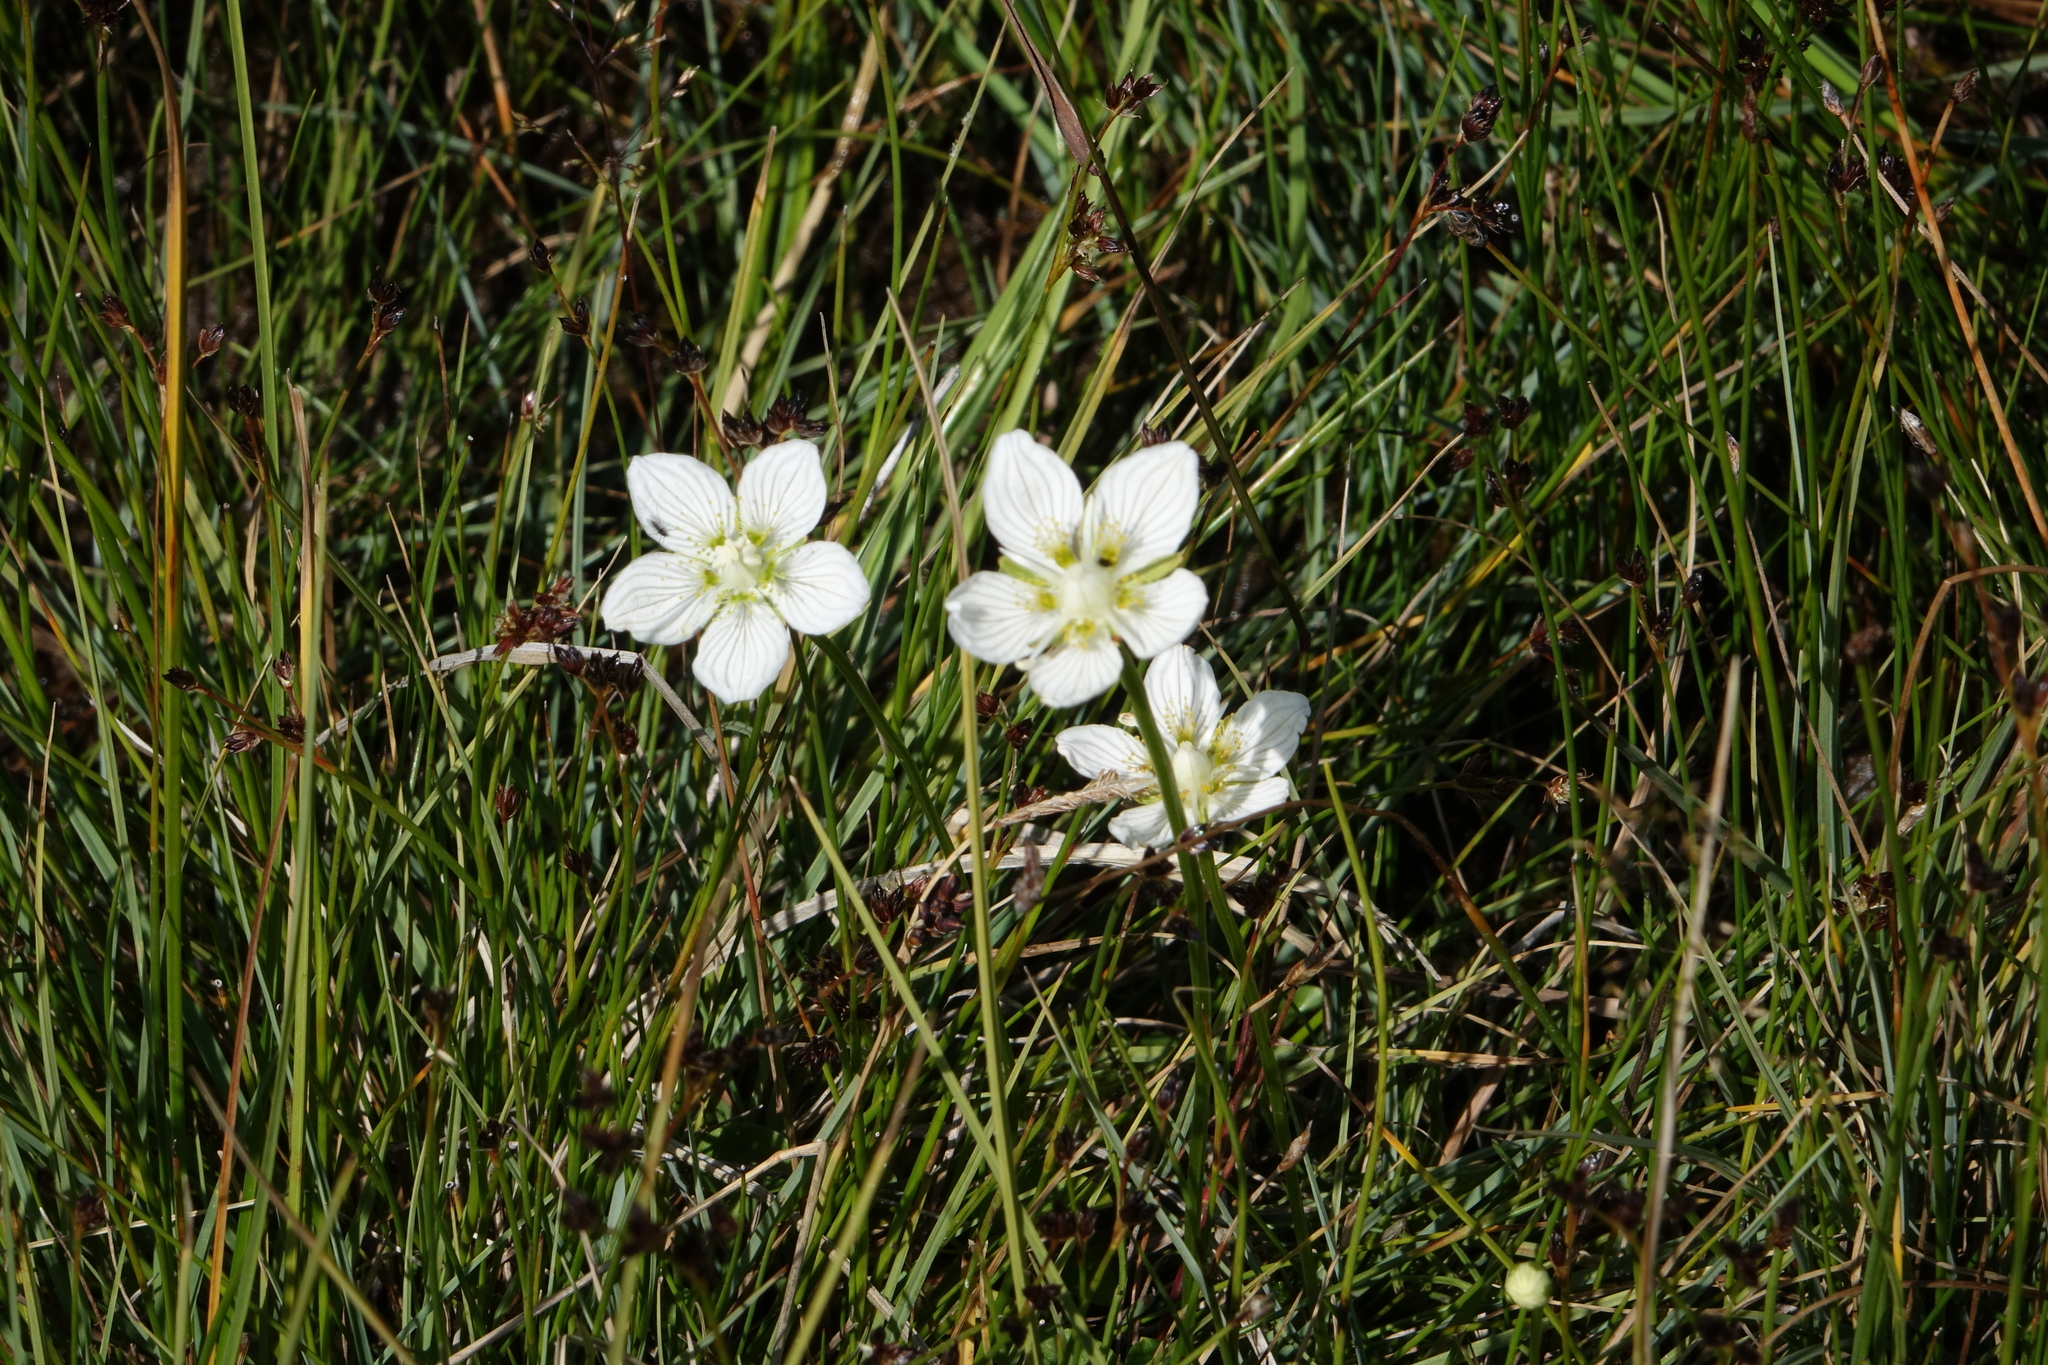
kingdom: Plantae
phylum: Tracheophyta
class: Magnoliopsida
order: Celastrales
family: Parnassiaceae
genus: Parnassia
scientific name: Parnassia palustris
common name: Grass-of-parnassus
